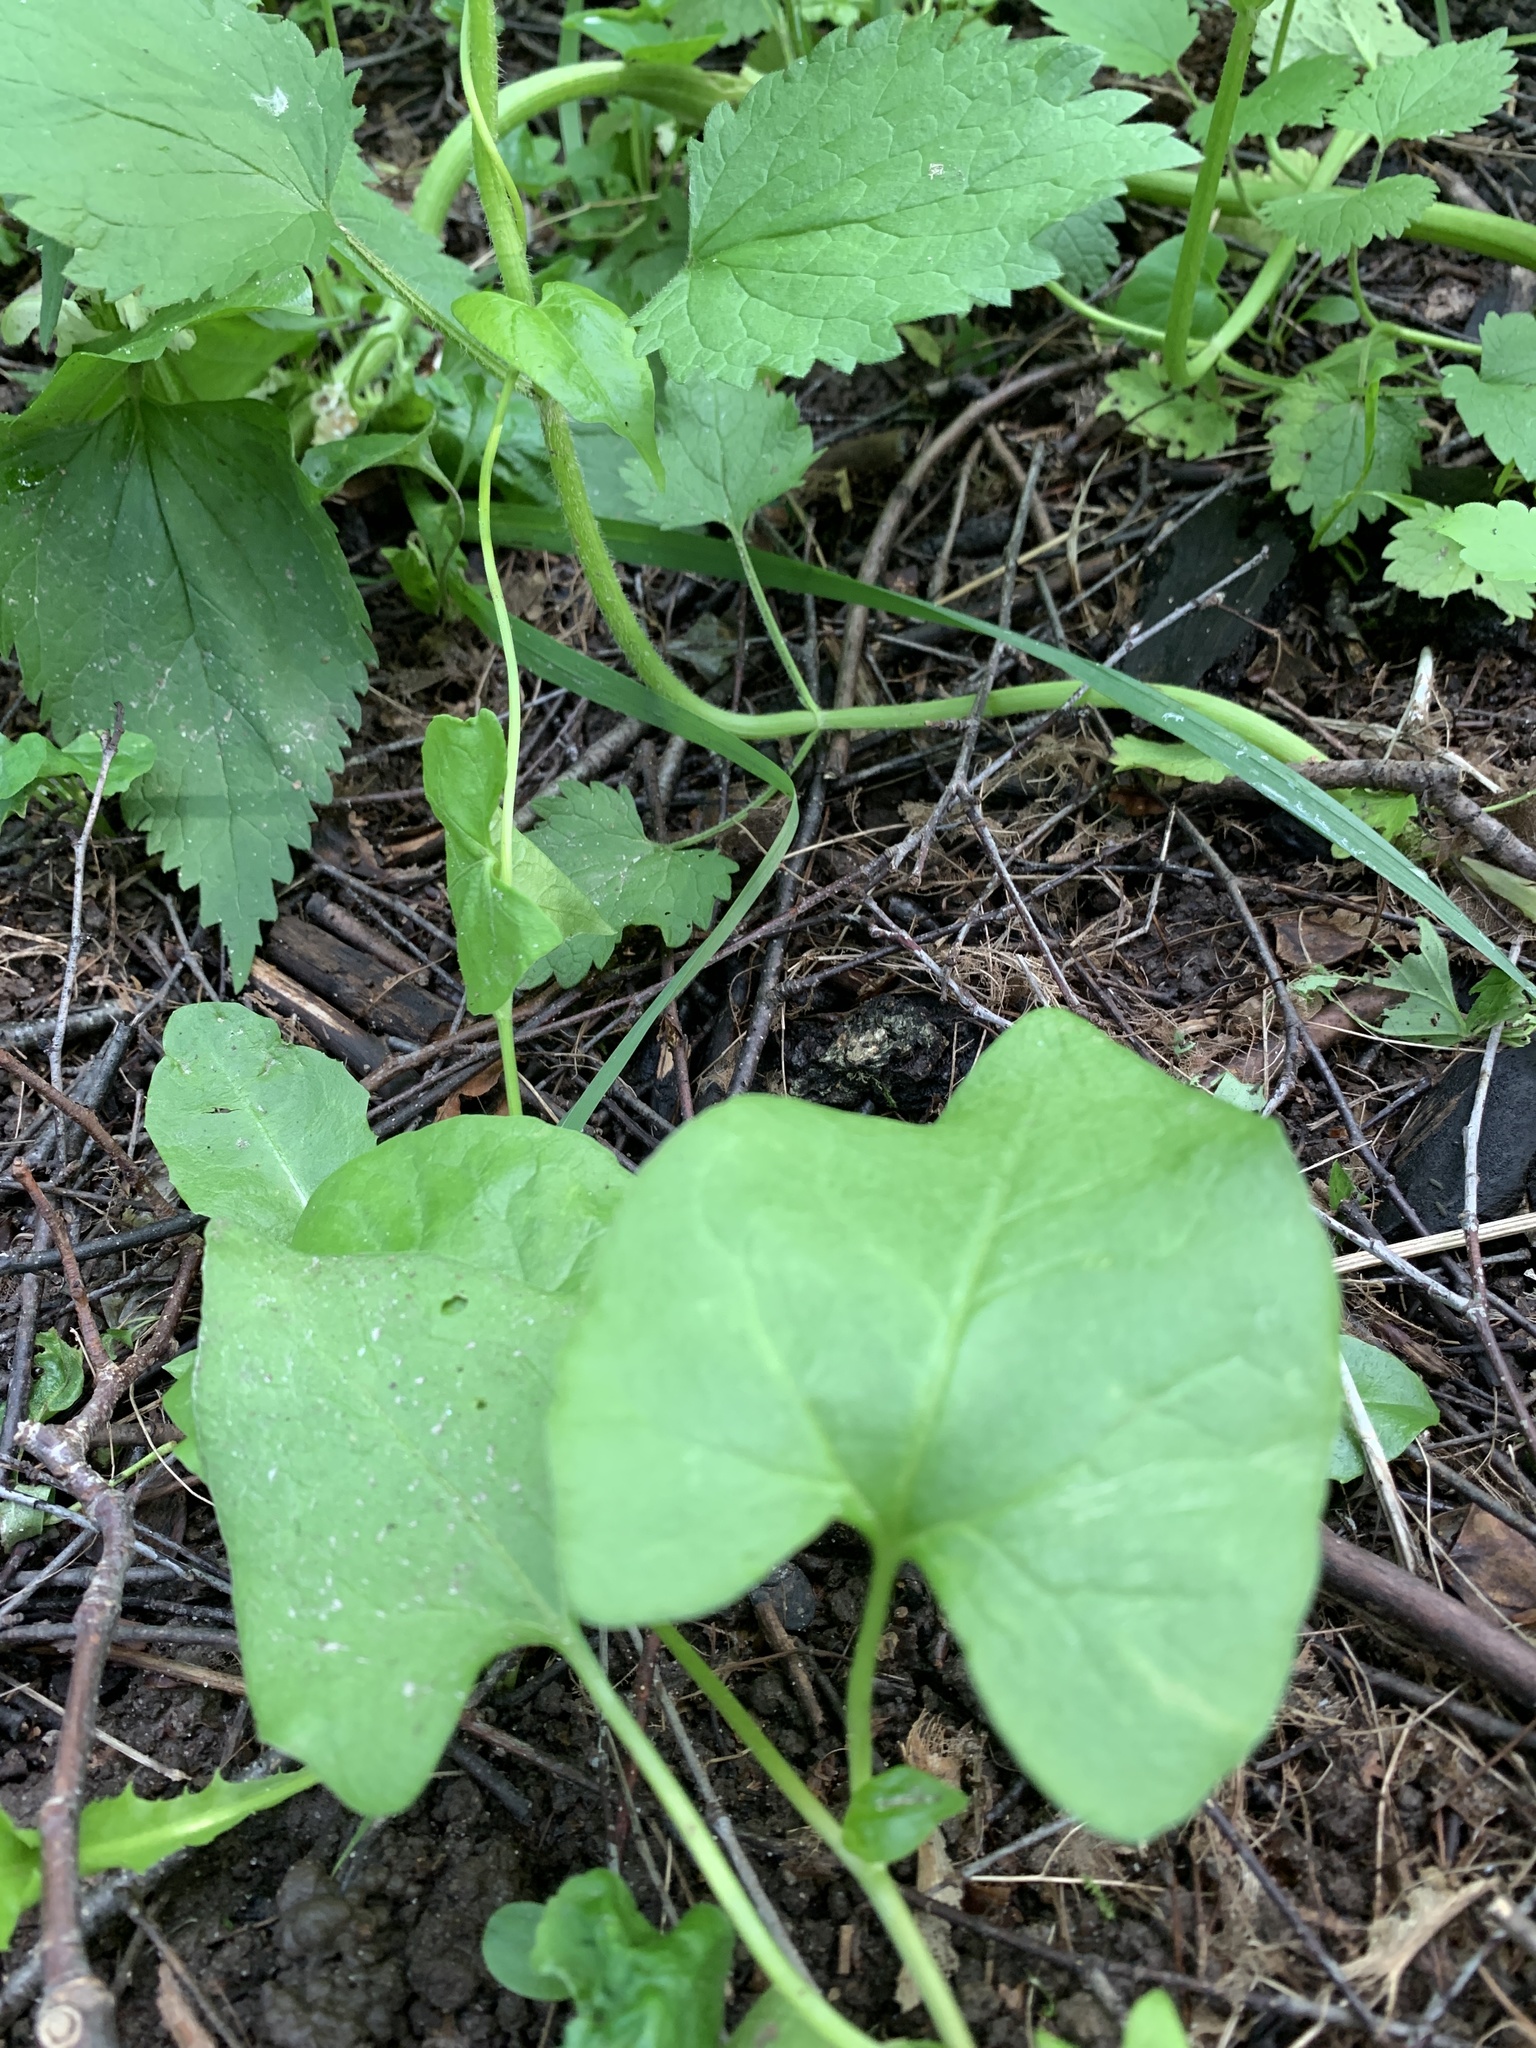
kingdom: Plantae
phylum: Tracheophyta
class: Magnoliopsida
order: Solanales
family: Convolvulaceae
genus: Convolvulus
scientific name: Convolvulus arvensis
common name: Field bindweed
